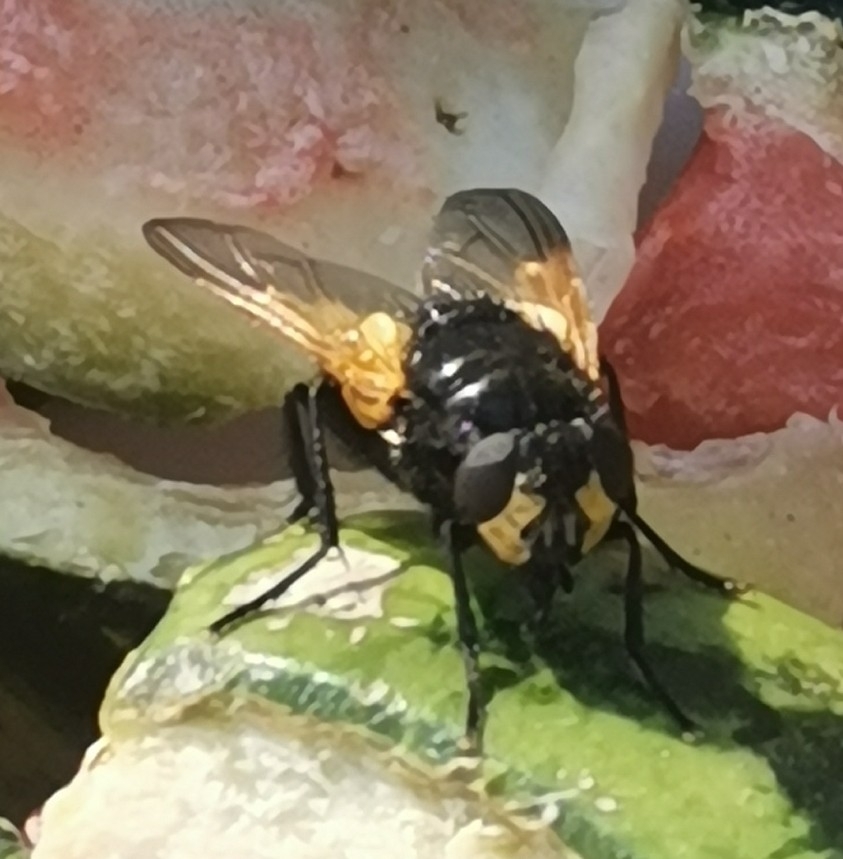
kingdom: Animalia
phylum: Arthropoda
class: Insecta
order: Diptera
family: Muscidae
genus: Mesembrina
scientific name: Mesembrina meridiana
